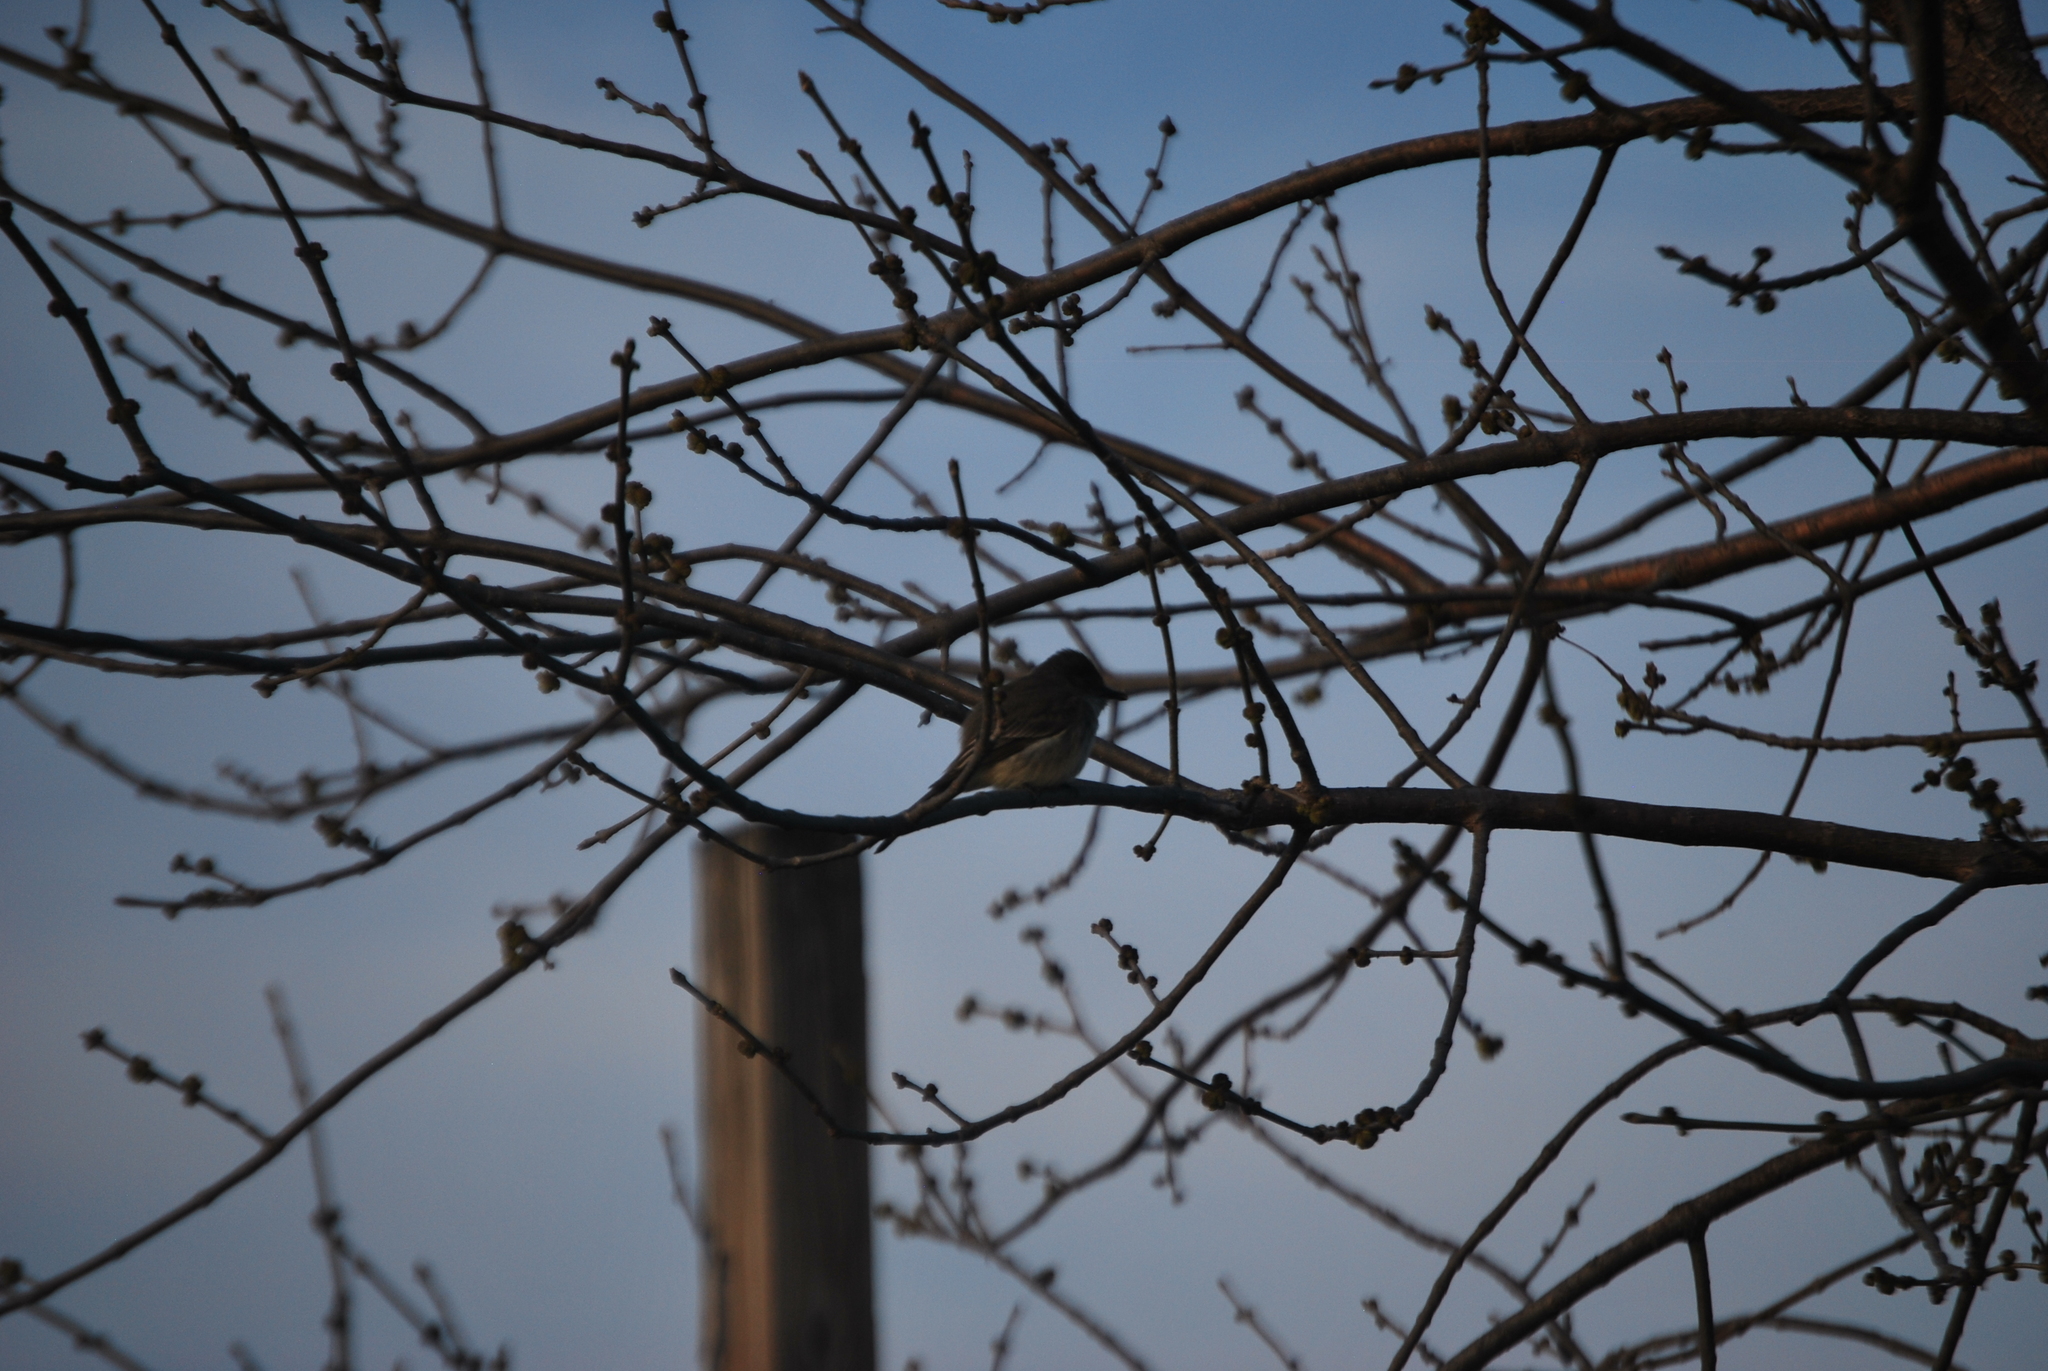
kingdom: Animalia
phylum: Chordata
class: Aves
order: Passeriformes
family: Tyrannidae
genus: Sayornis
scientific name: Sayornis phoebe
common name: Eastern phoebe
